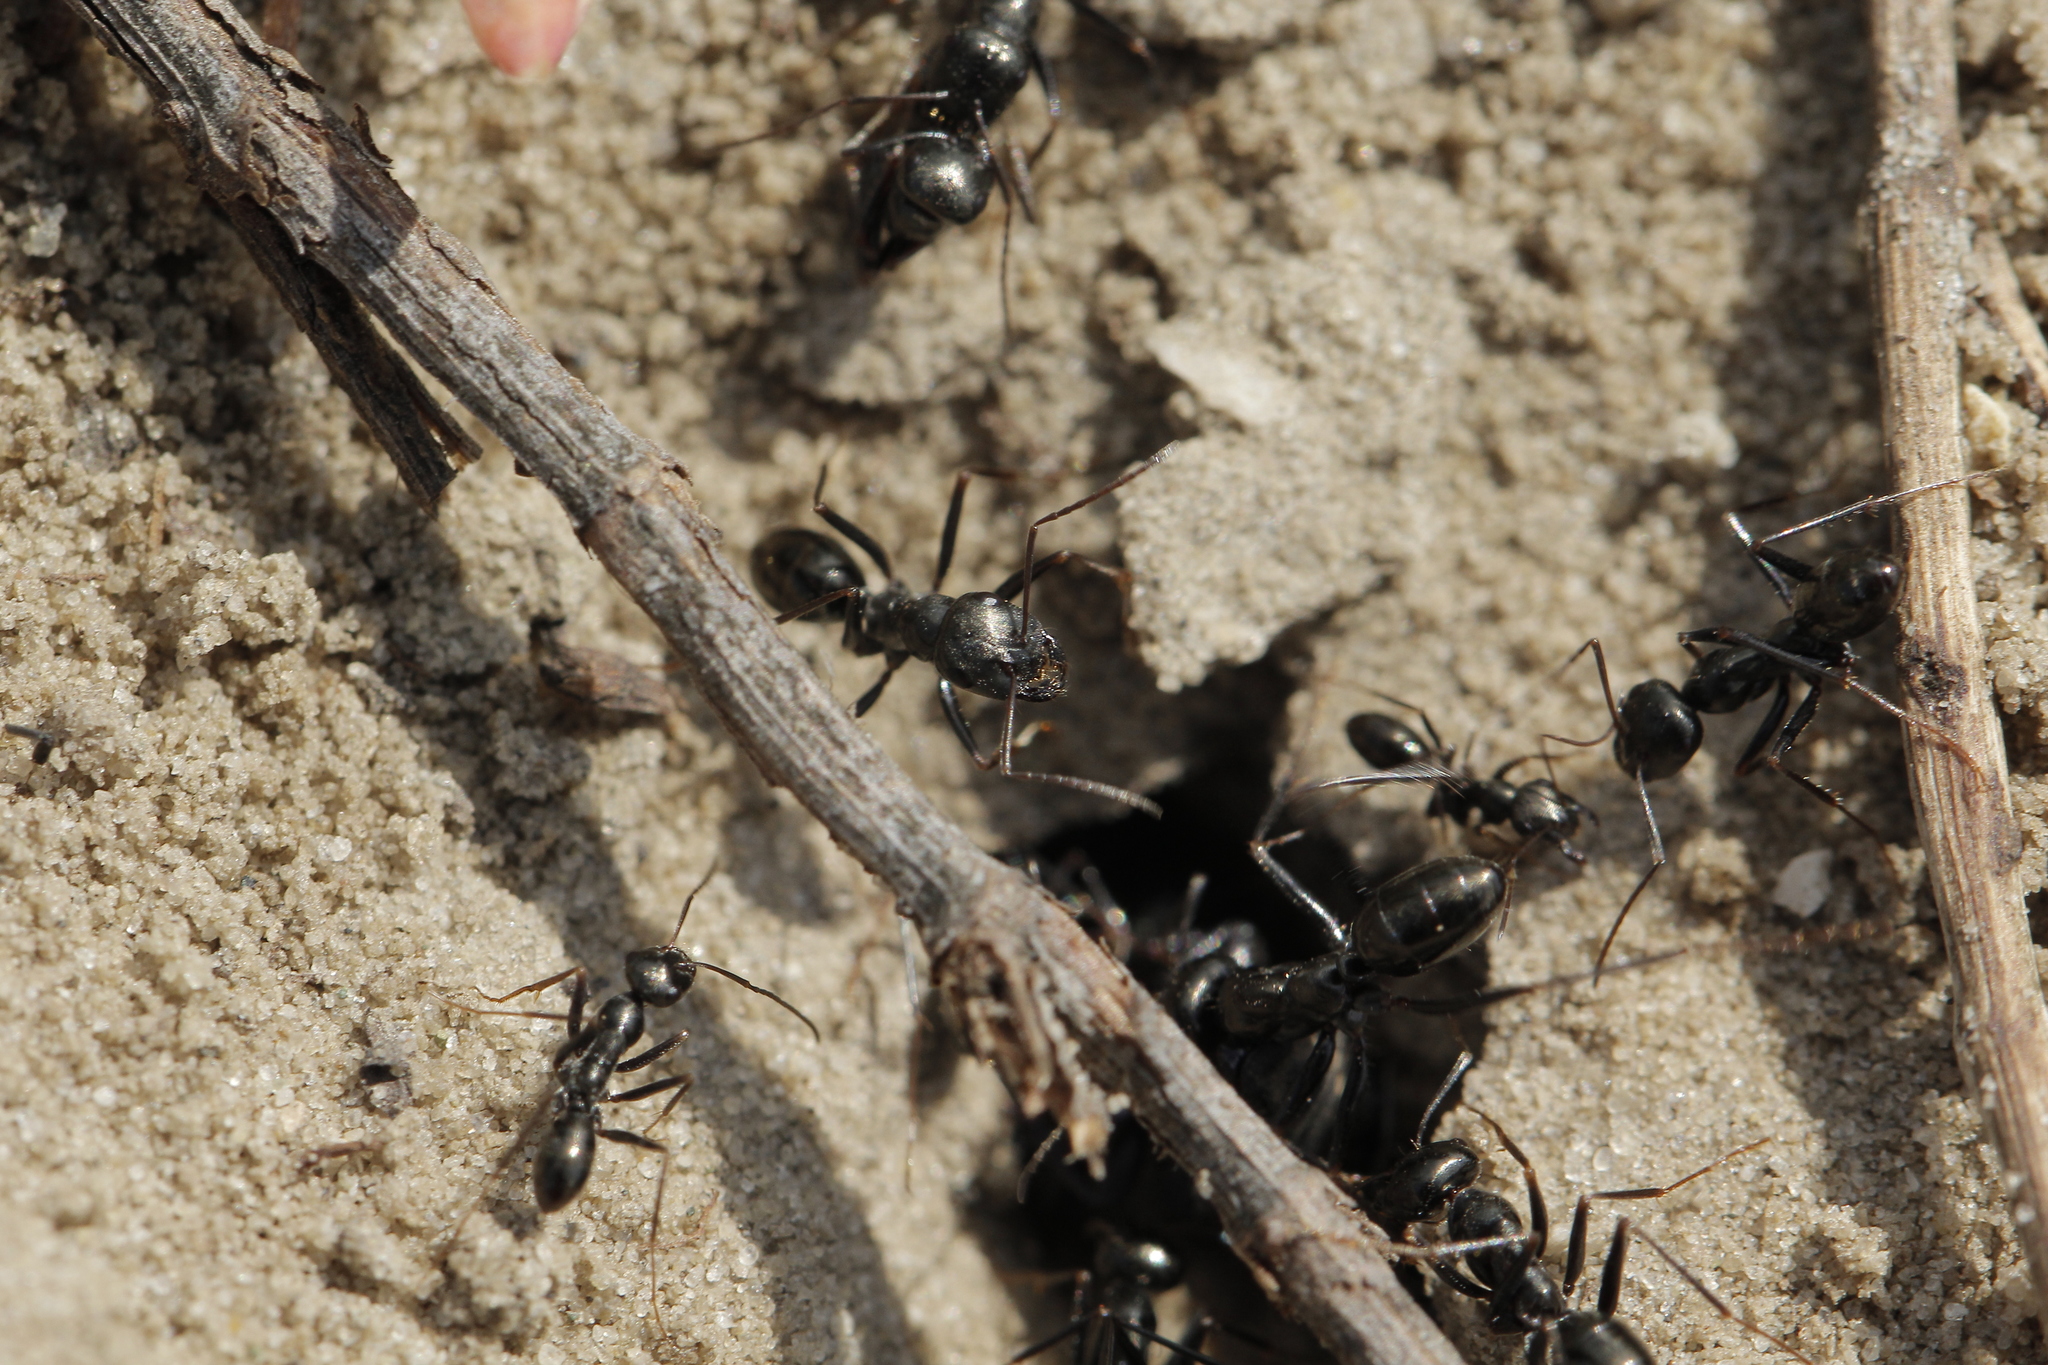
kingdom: Animalia
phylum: Arthropoda
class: Insecta
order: Hymenoptera
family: Formicidae
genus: Cataglyphis
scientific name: Cataglyphis aenescens
